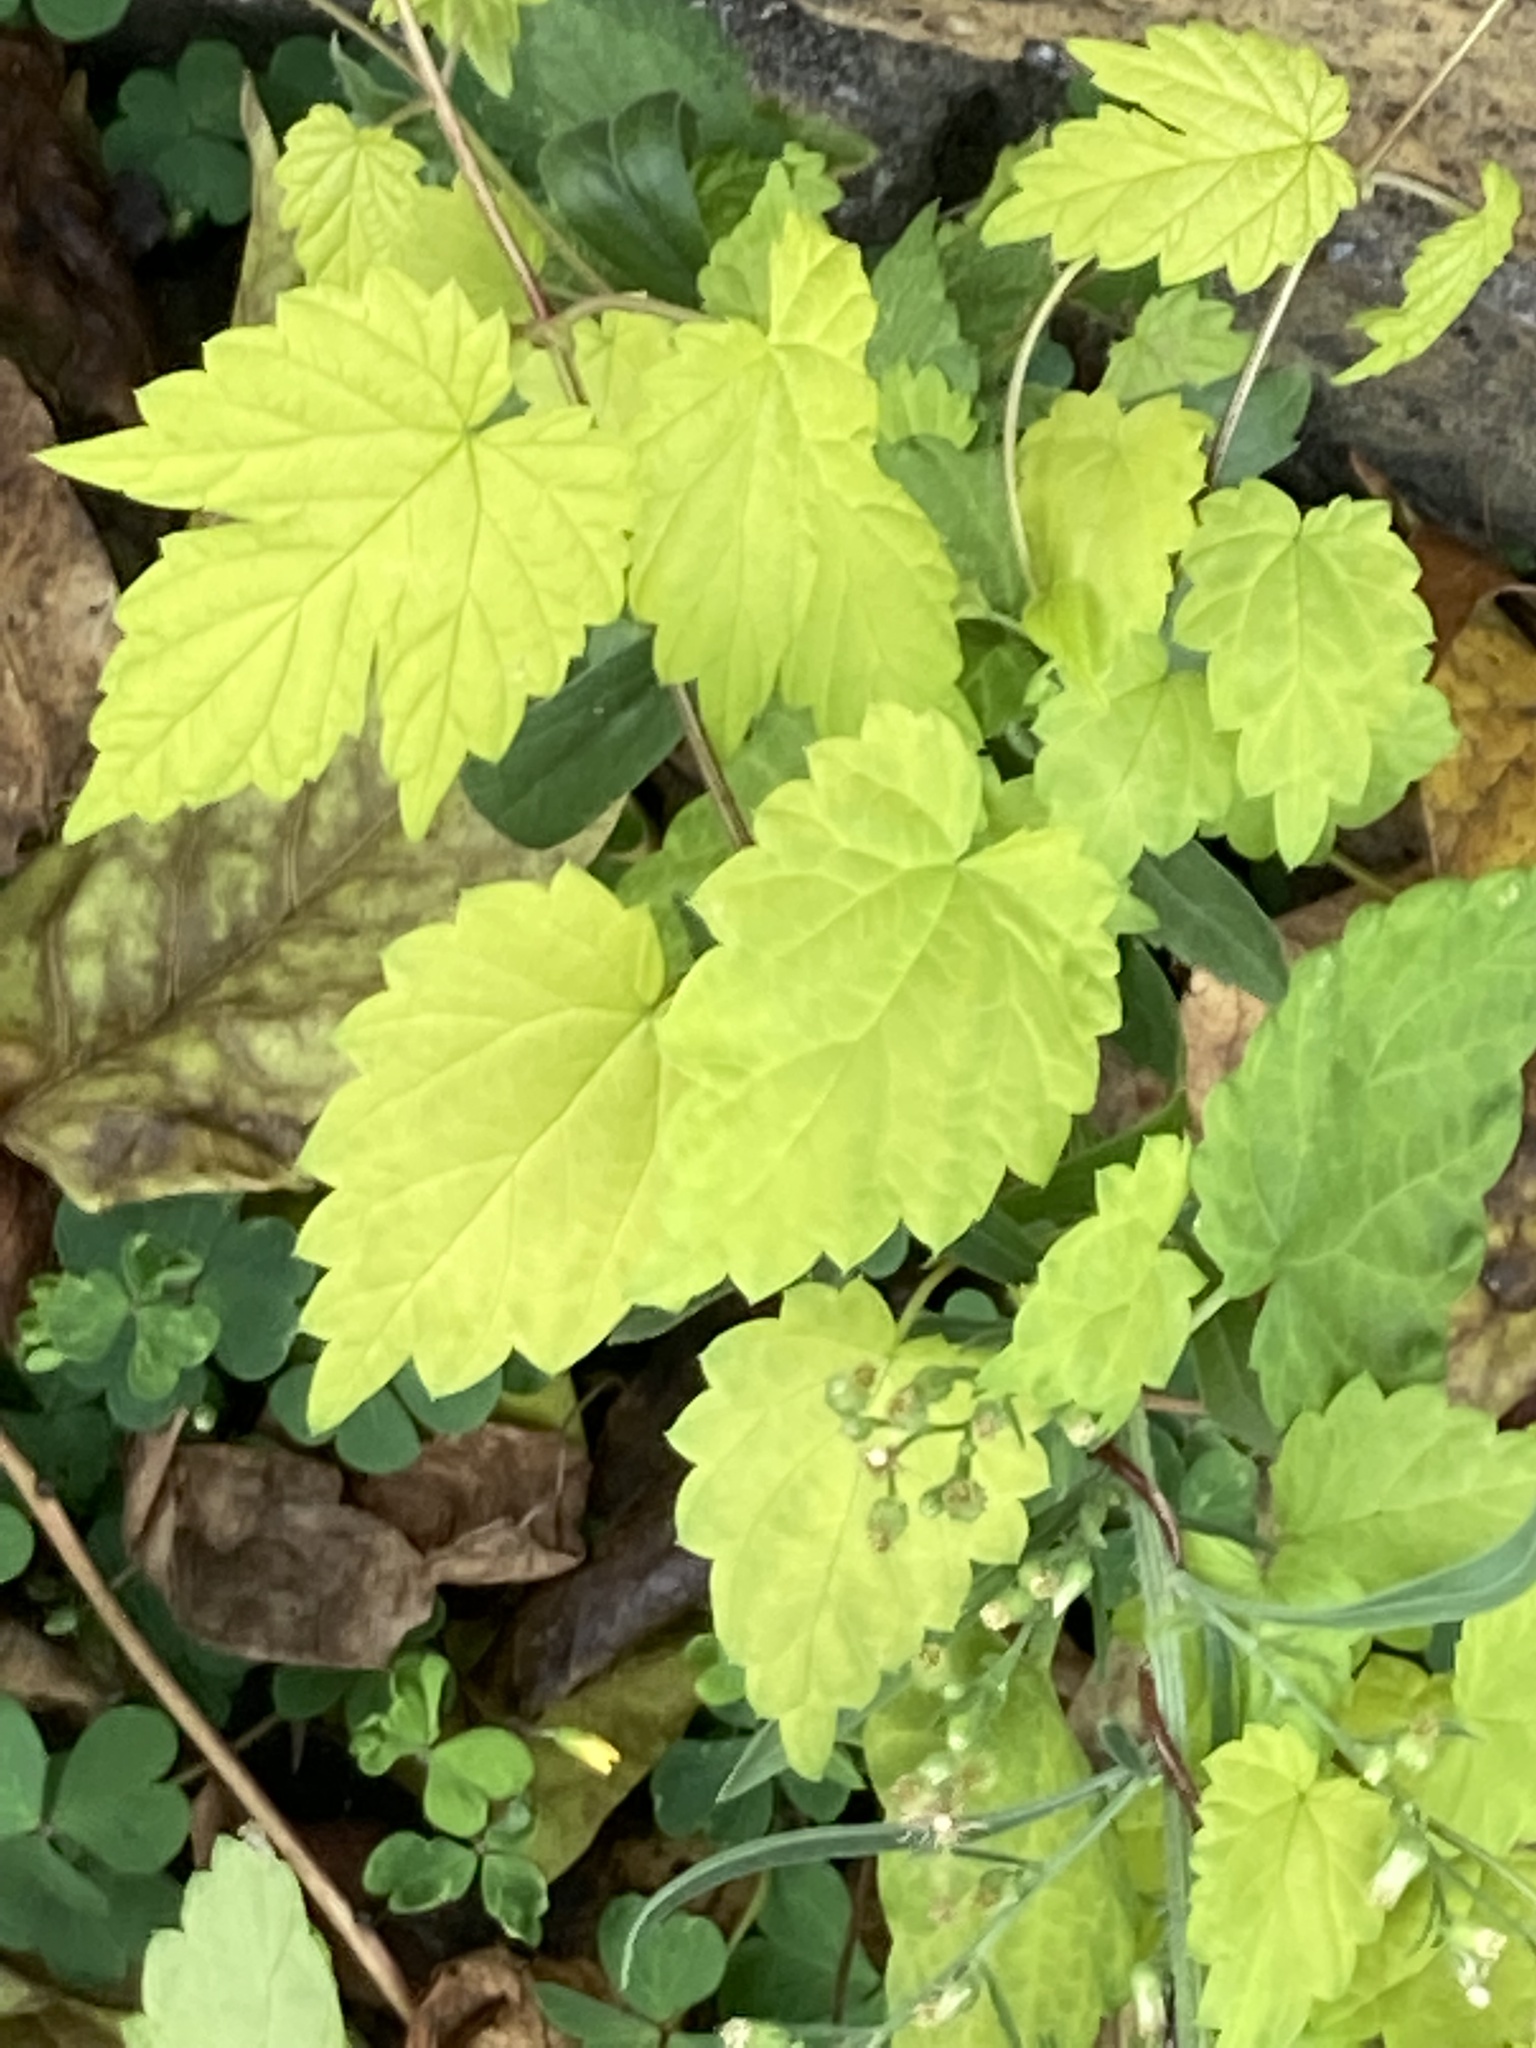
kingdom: Plantae
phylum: Tracheophyta
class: Magnoliopsida
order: Rosales
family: Cannabaceae
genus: Humulus
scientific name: Humulus lupulus
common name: Hop
